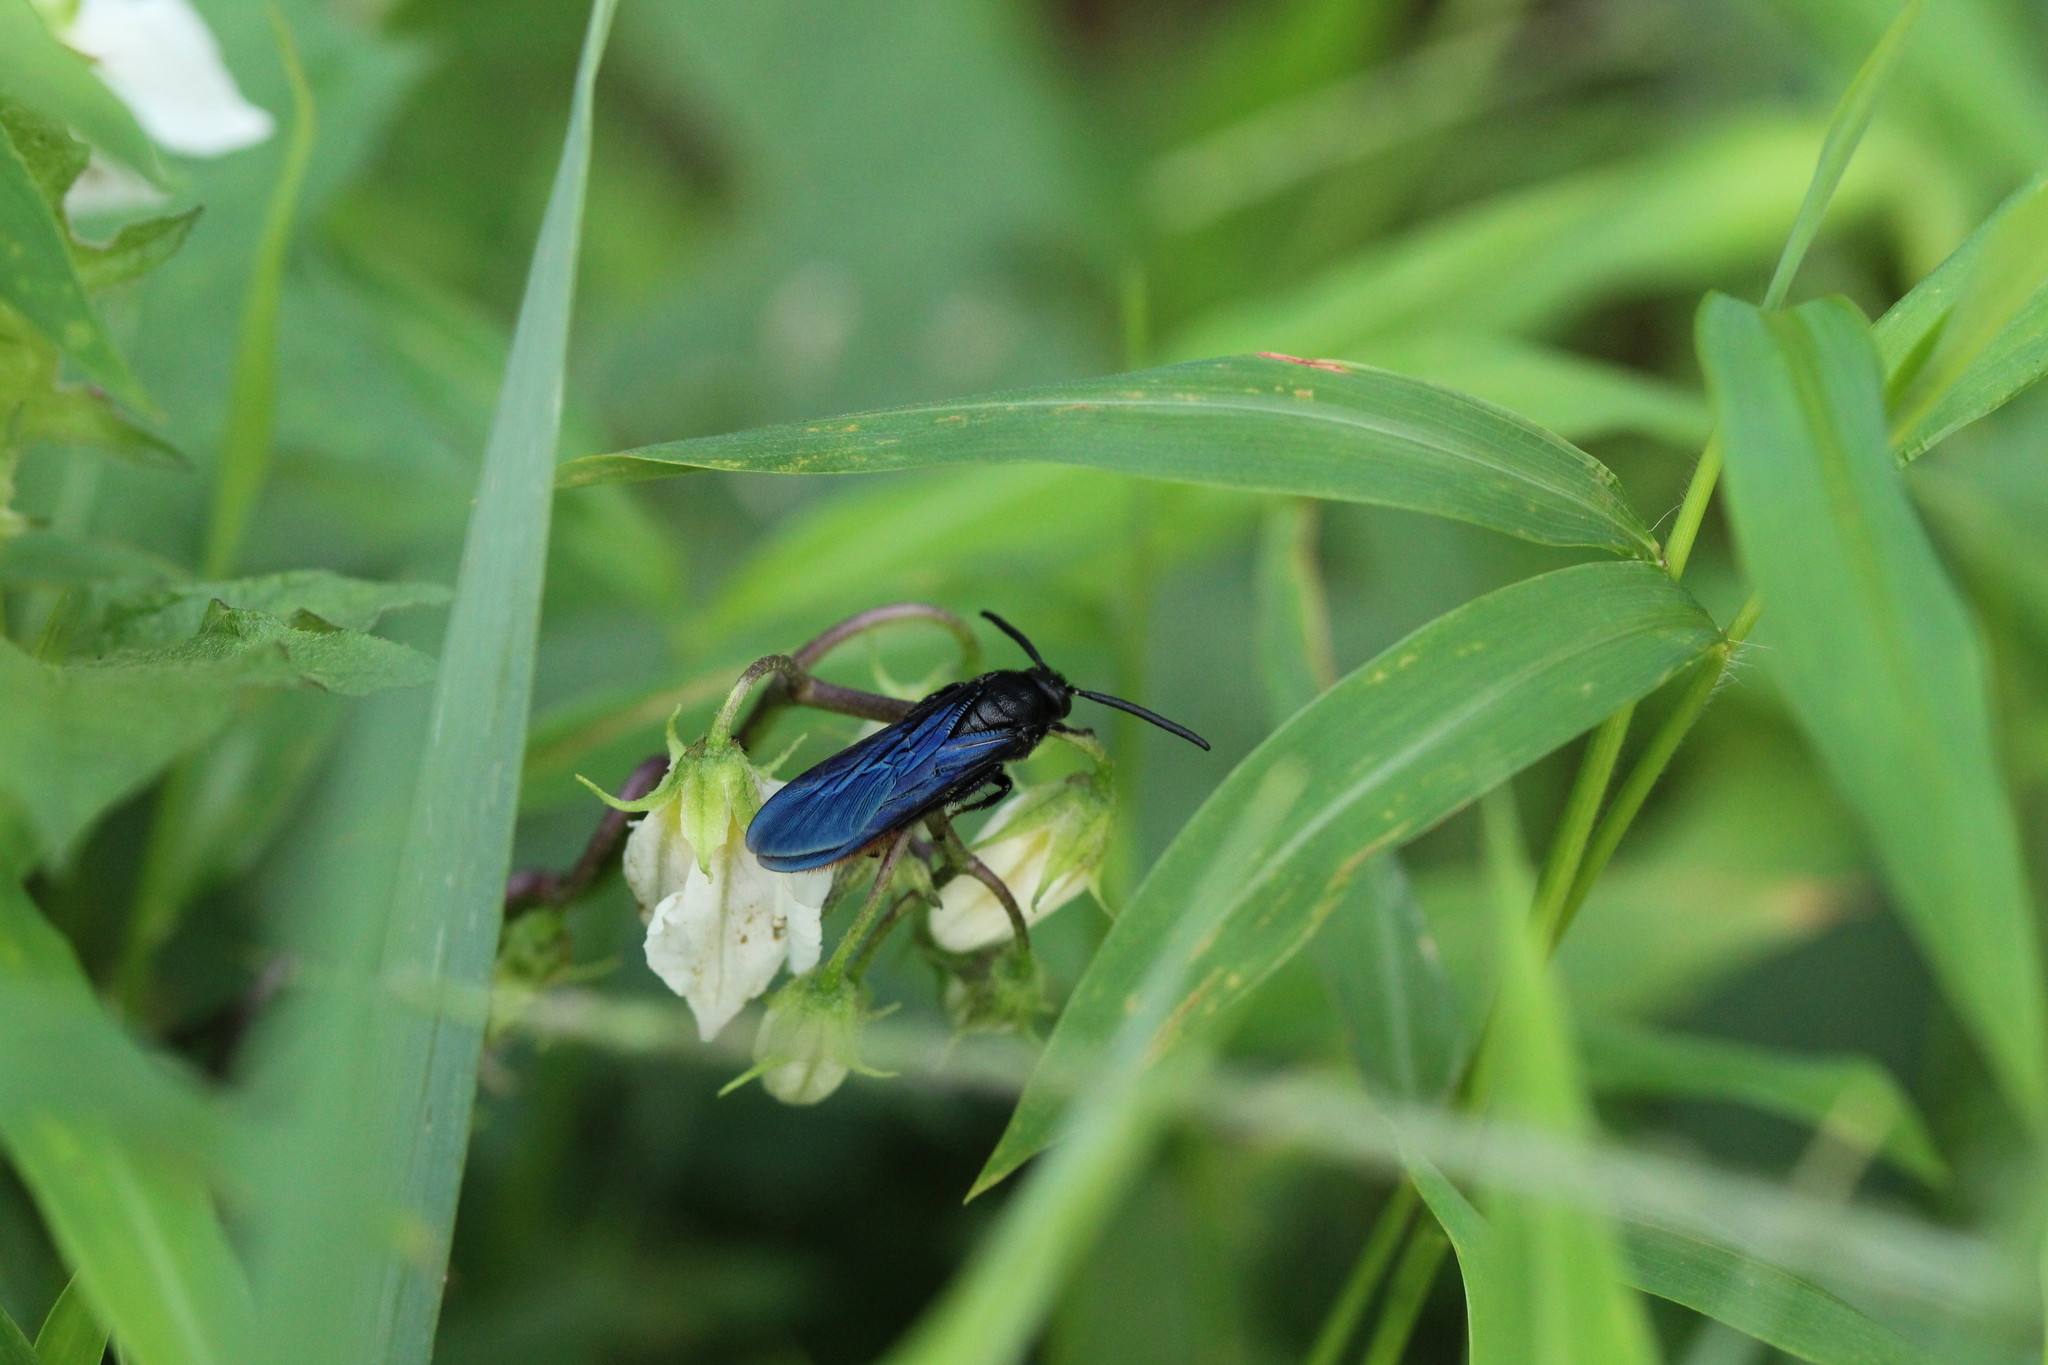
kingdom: Animalia
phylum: Arthropoda
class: Insecta
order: Hymenoptera
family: Scoliidae
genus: Scolia
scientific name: Scolia dubia
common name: Blue-winged scoliid wasp
